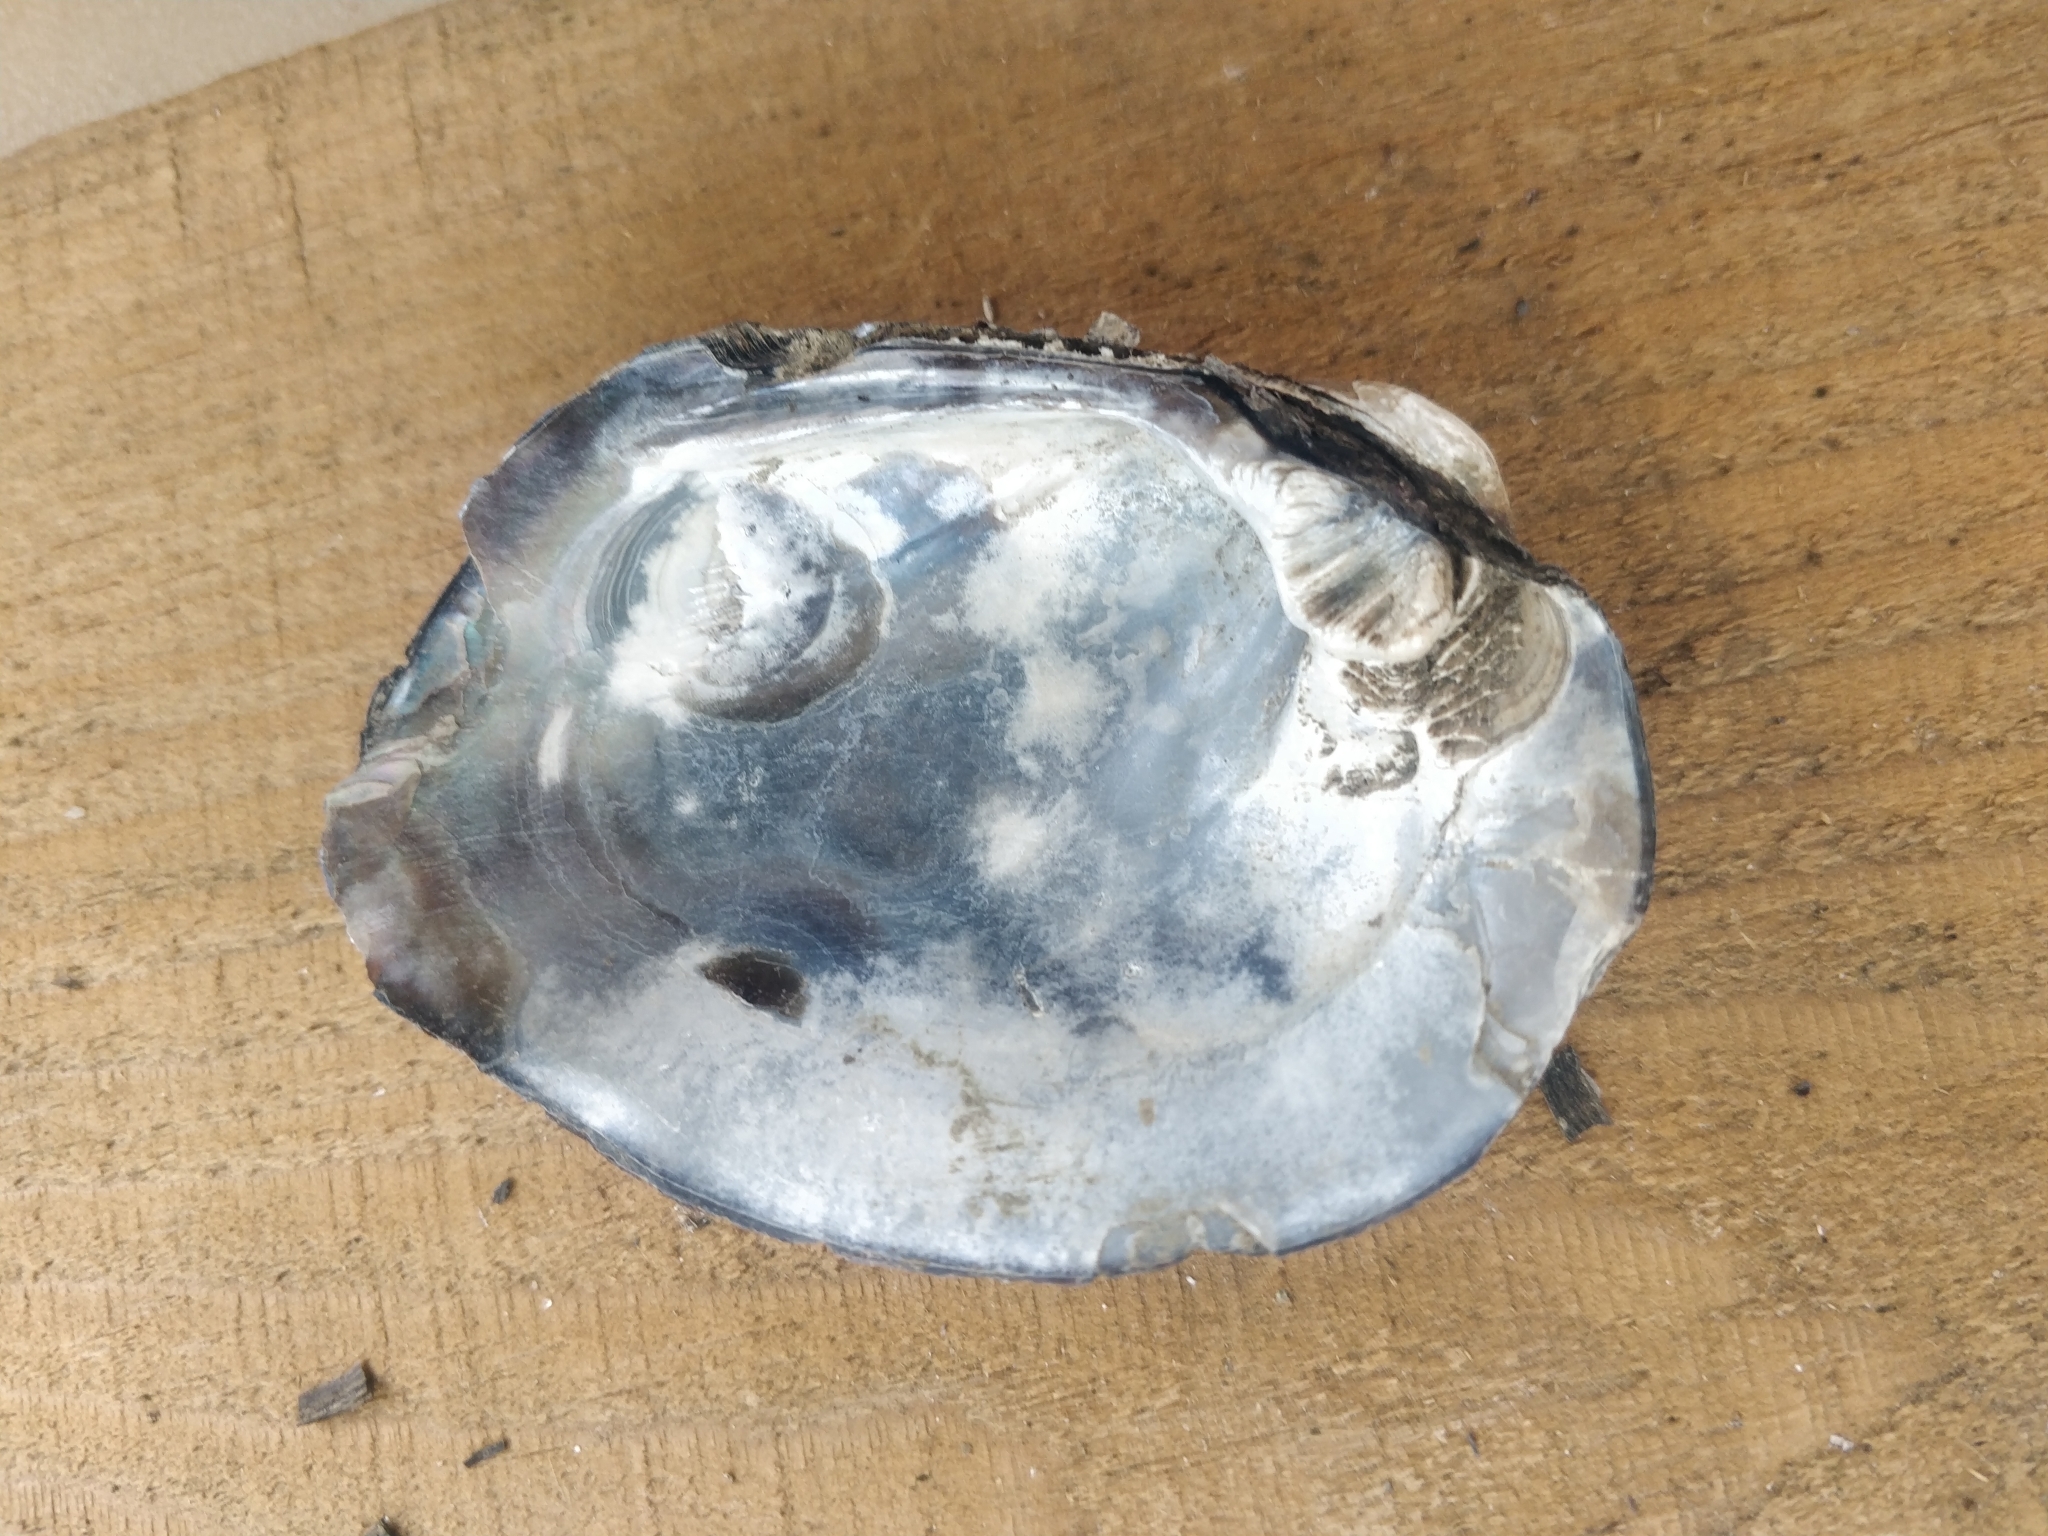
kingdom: Animalia
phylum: Mollusca
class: Bivalvia
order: Unionida
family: Unionidae
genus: Amblema
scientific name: Amblema plicata
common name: Threeridge
